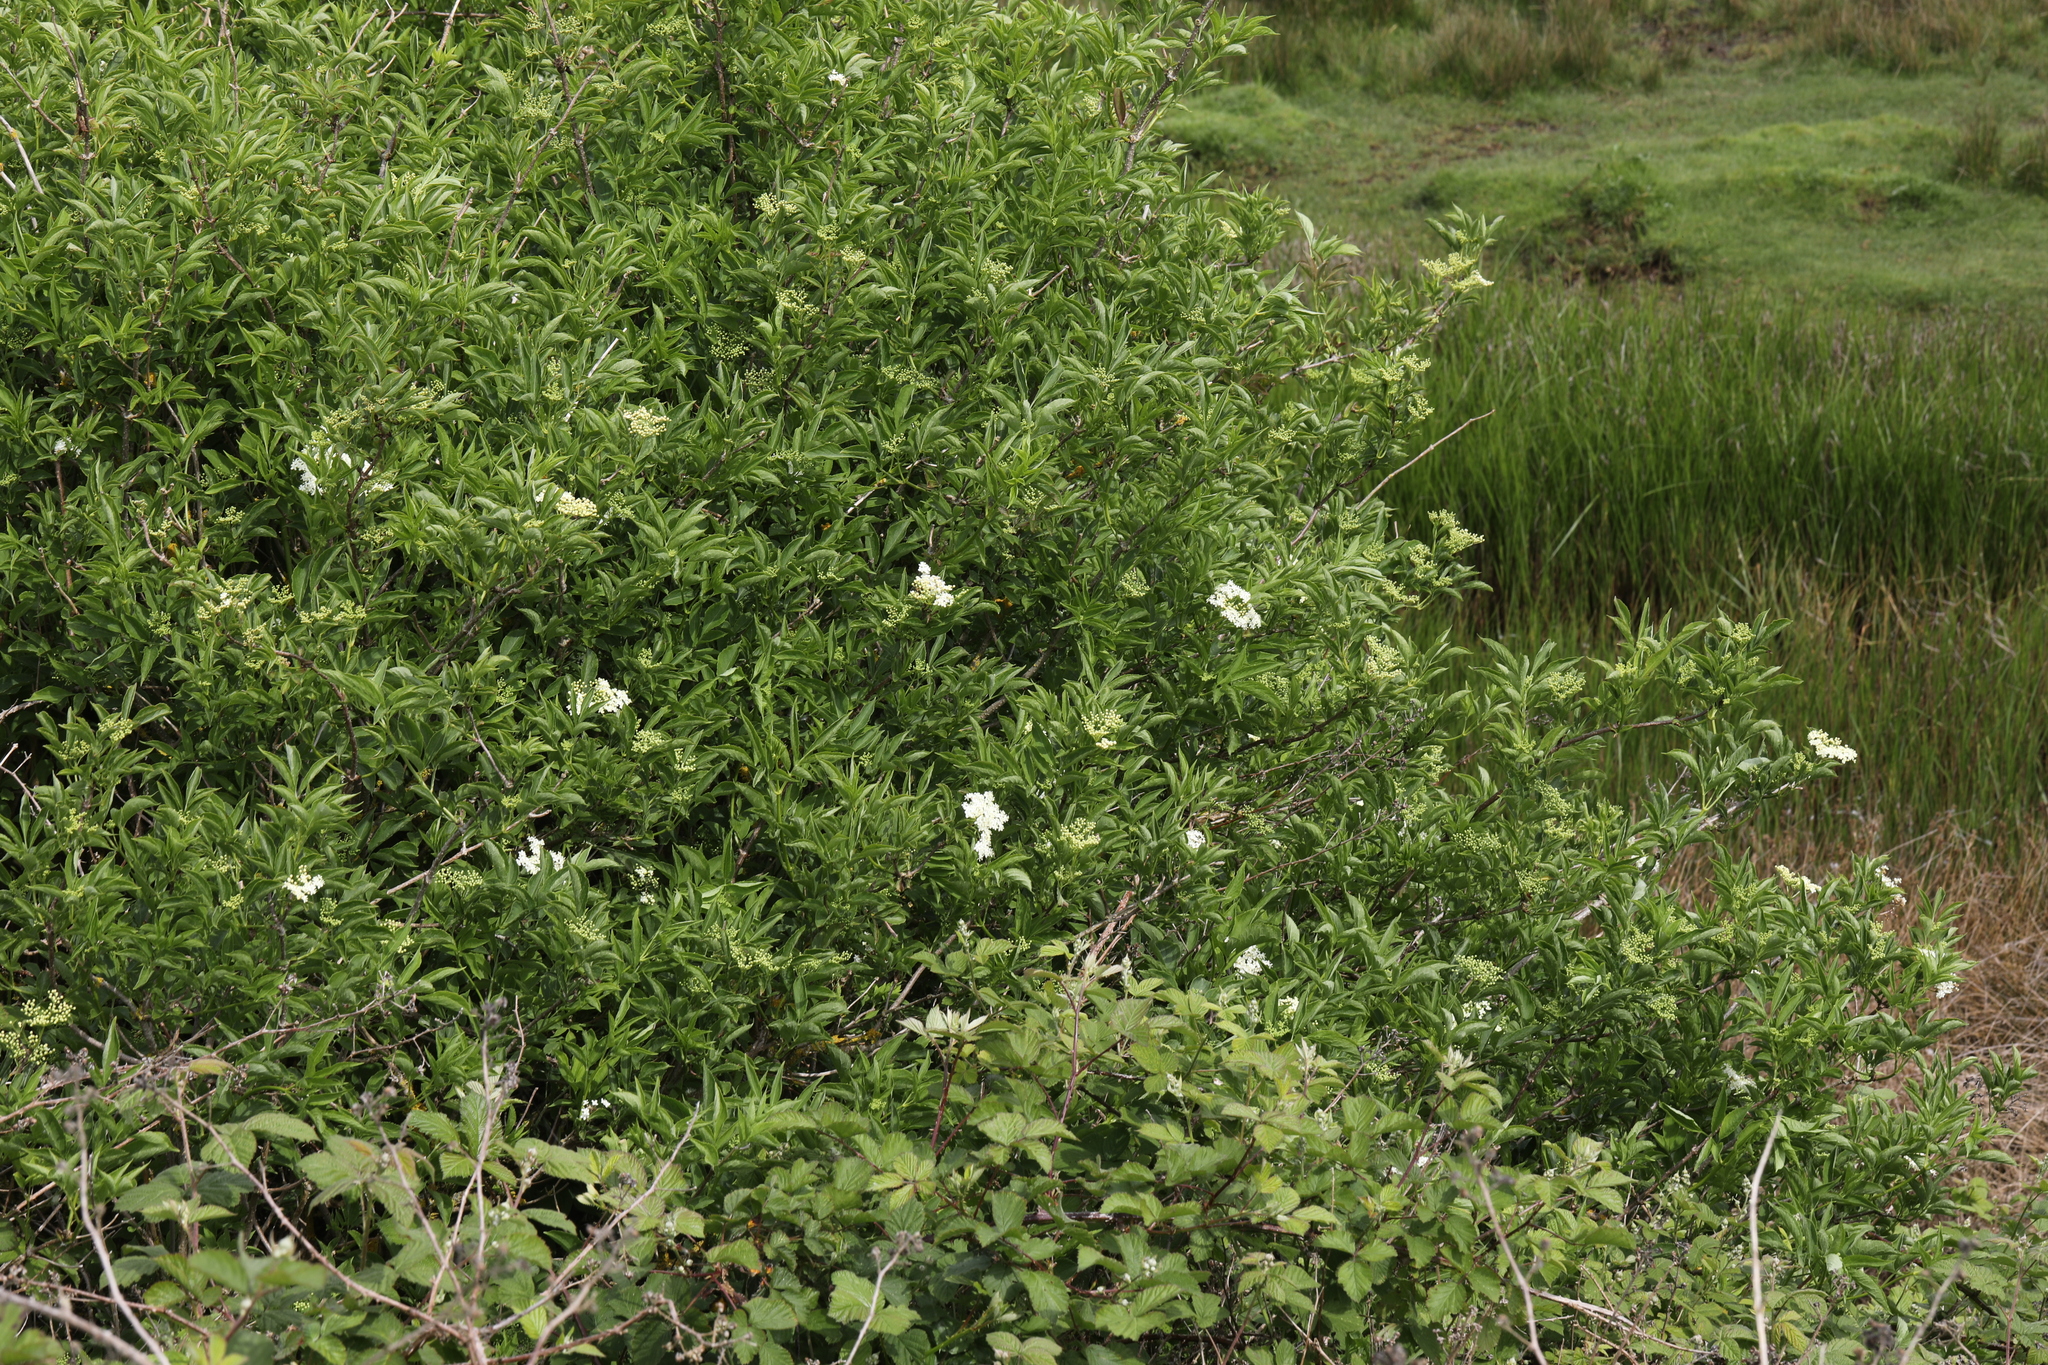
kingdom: Plantae
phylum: Tracheophyta
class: Magnoliopsida
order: Dipsacales
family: Viburnaceae
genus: Sambucus
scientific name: Sambucus nigra
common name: Elder
